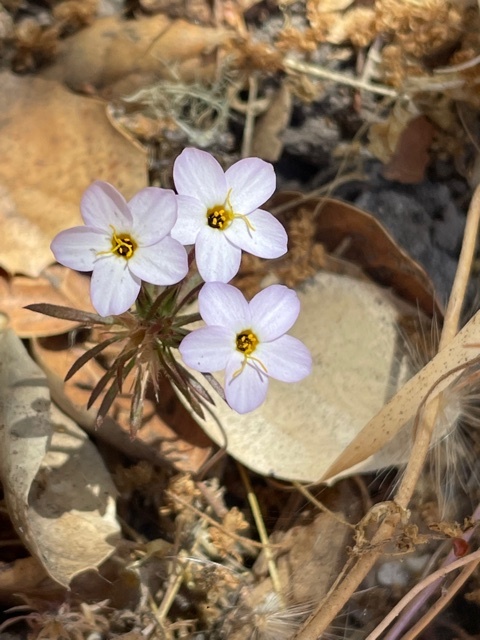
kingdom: Plantae
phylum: Tracheophyta
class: Magnoliopsida
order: Ericales
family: Polemoniaceae
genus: Leptosiphon
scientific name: Leptosiphon androsaceus
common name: False babystars
